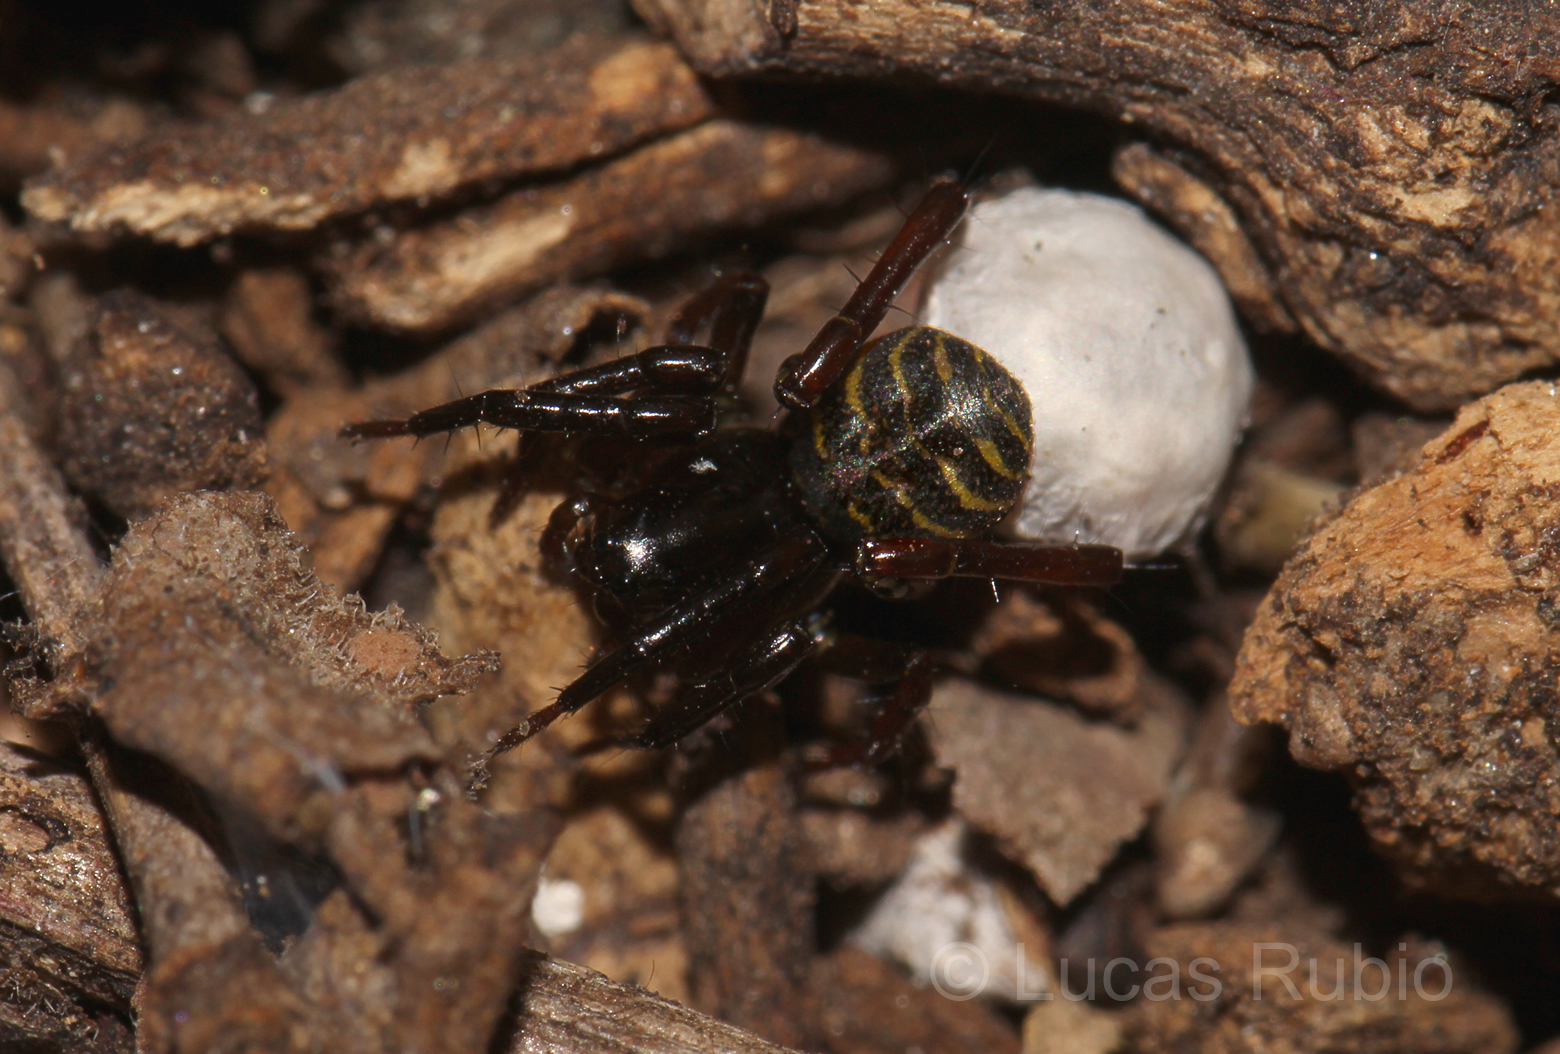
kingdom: Animalia
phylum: Arthropoda
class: Arachnida
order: Araneae
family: Lycosidae
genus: Navira
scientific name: Navira naguan
